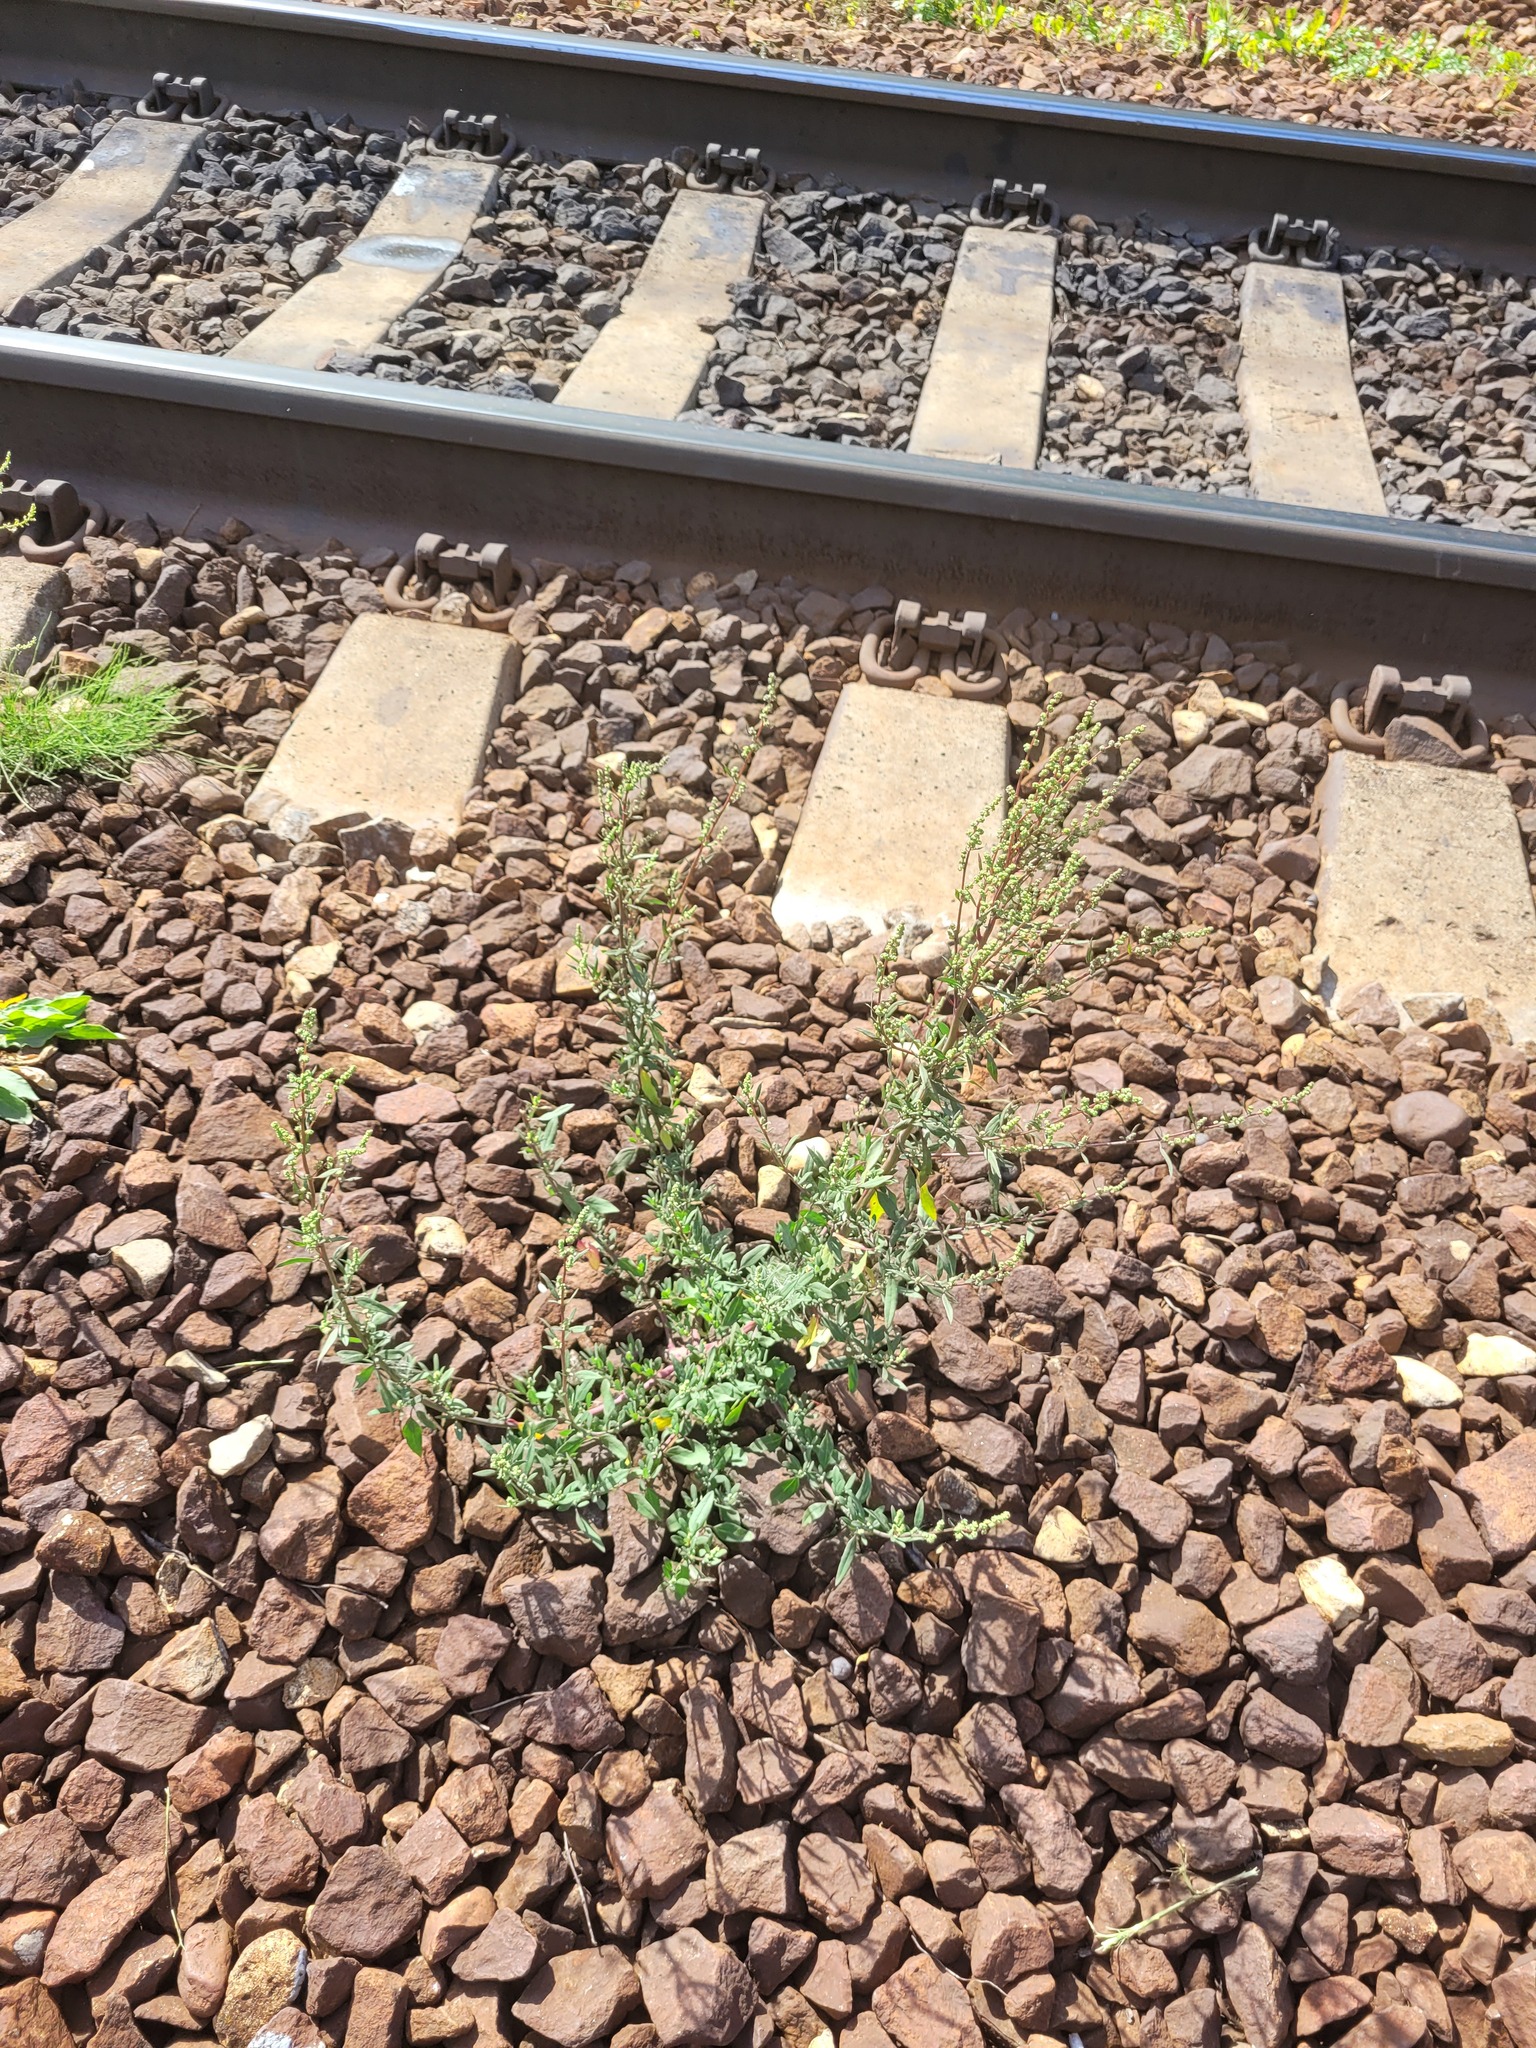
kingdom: Plantae
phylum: Tracheophyta
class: Magnoliopsida
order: Caryophyllales
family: Amaranthaceae
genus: Chenopodium
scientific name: Chenopodium betaceum
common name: Striped goosefoot
